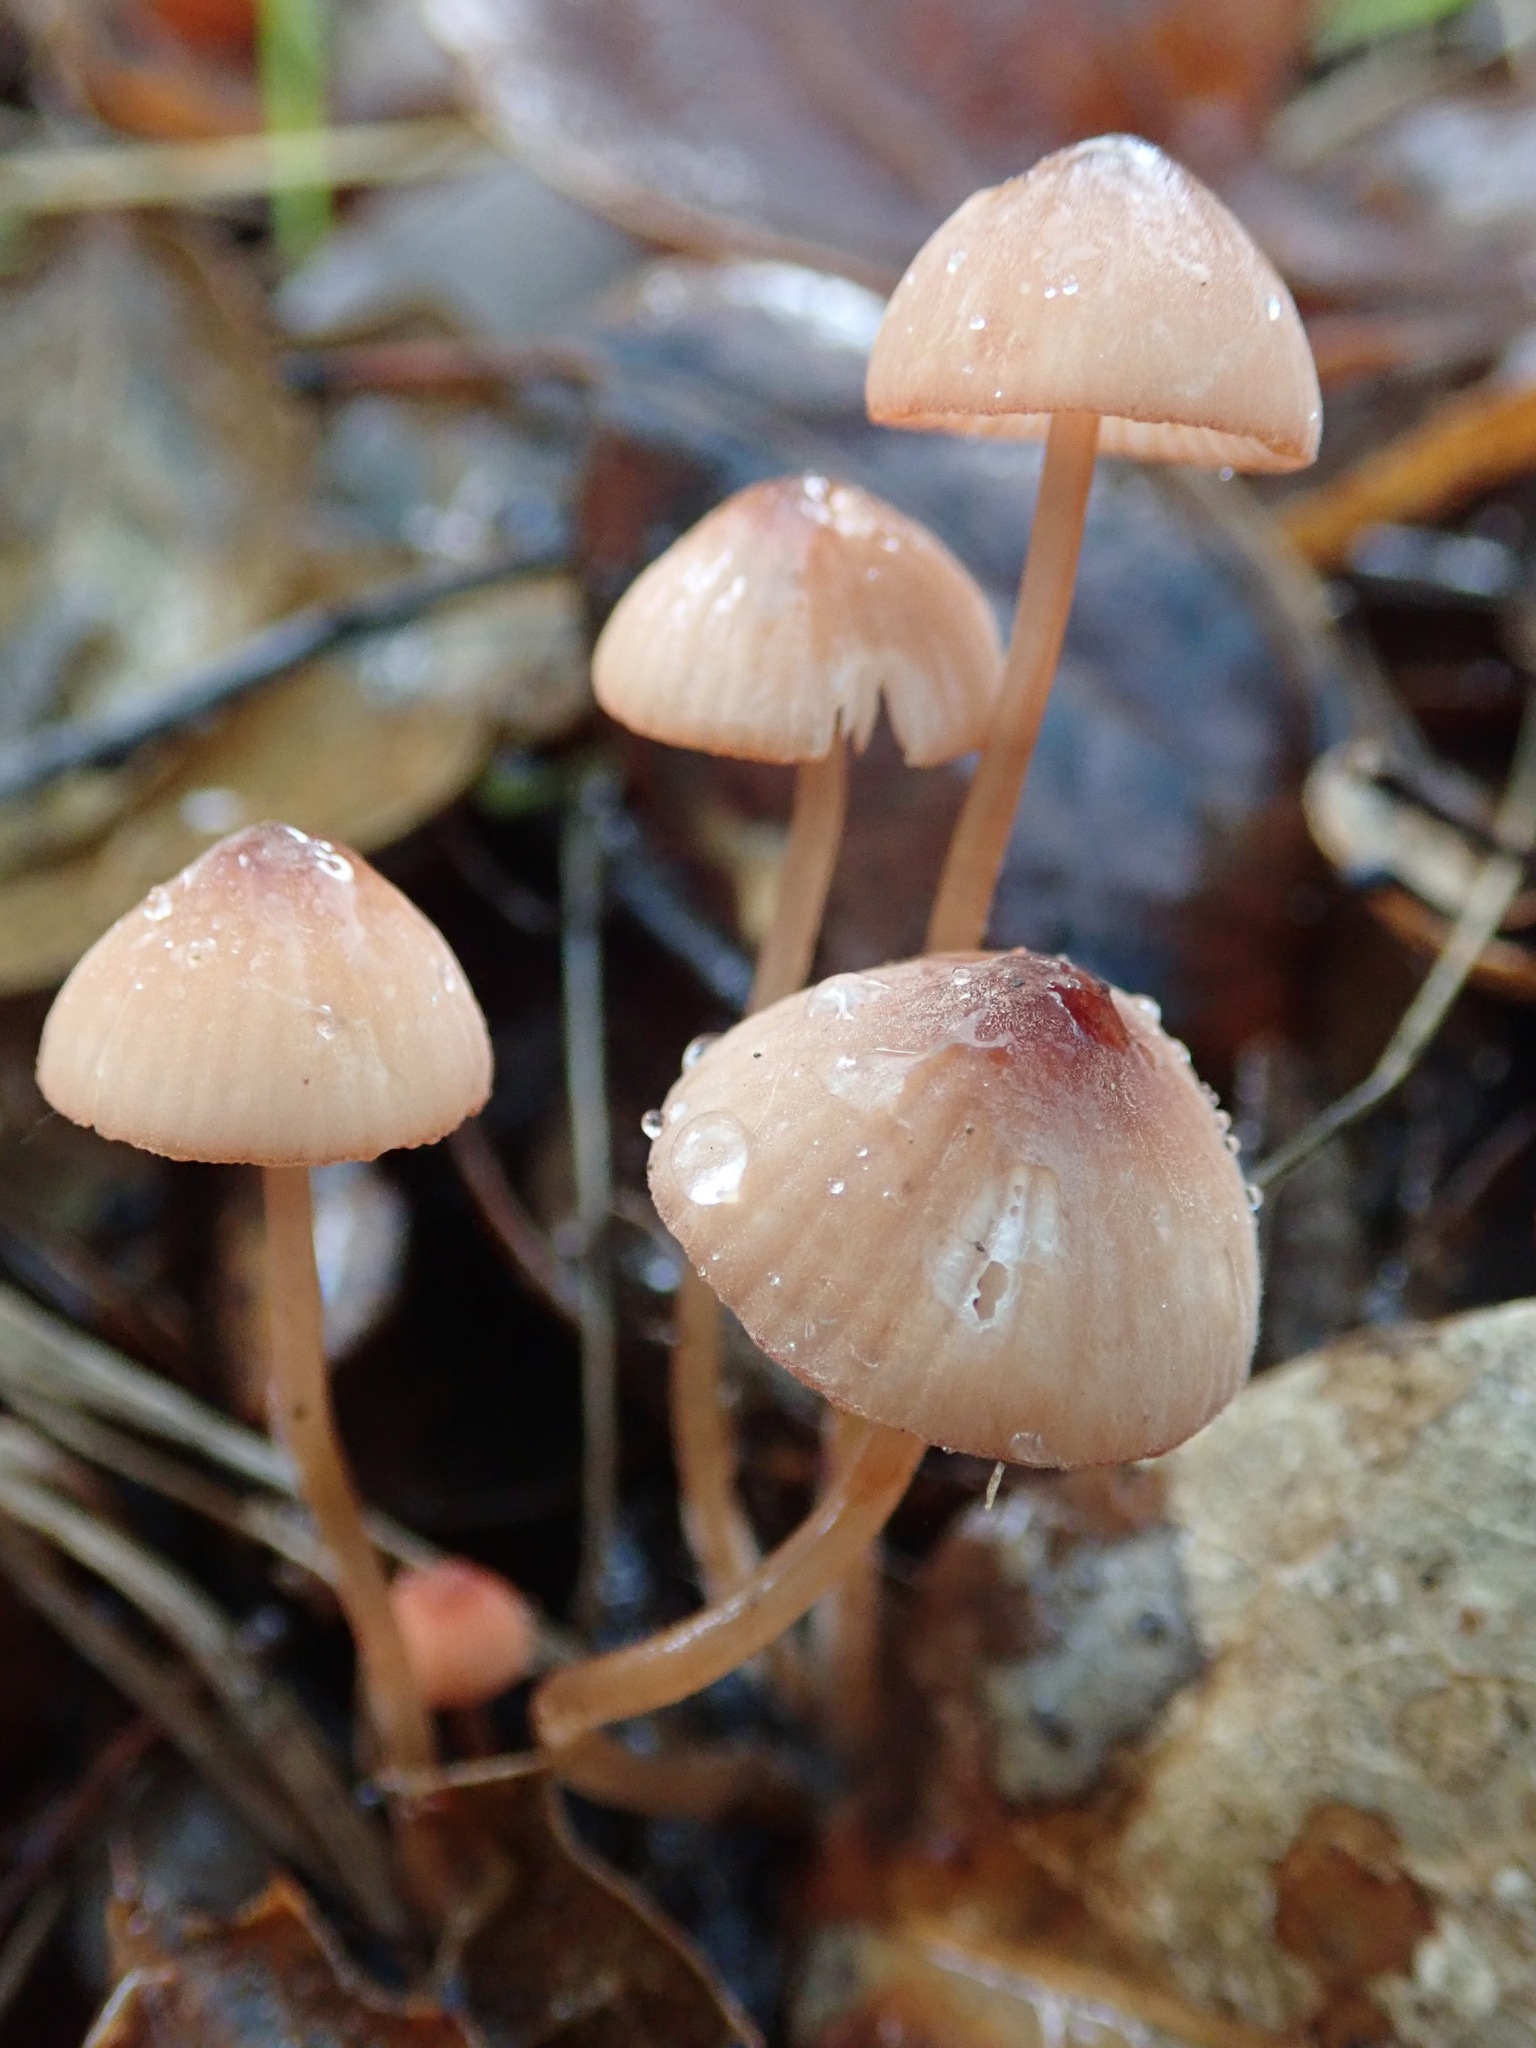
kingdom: Fungi
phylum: Basidiomycota
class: Agaricomycetes
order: Agaricales
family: Mycenaceae
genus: Mycena
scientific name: Mycena
